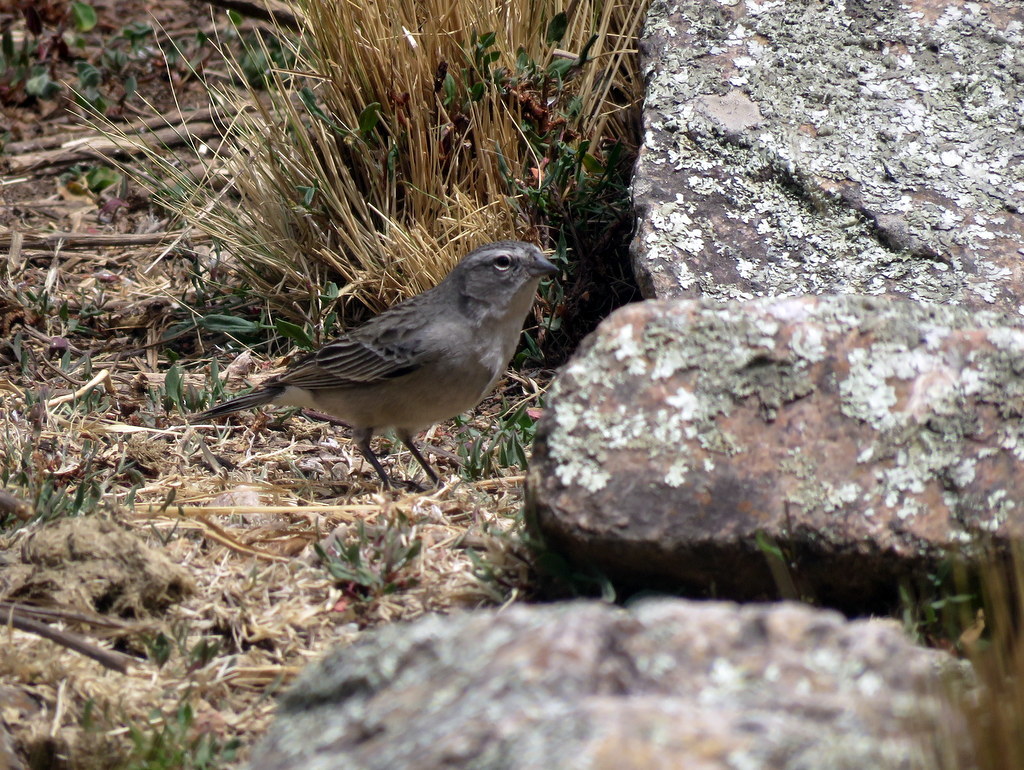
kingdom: Animalia
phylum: Chordata
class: Aves
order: Passeriformes
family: Thraupidae
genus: Geospizopsis
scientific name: Geospizopsis plebejus
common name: Ash-breasted sierra-finch
